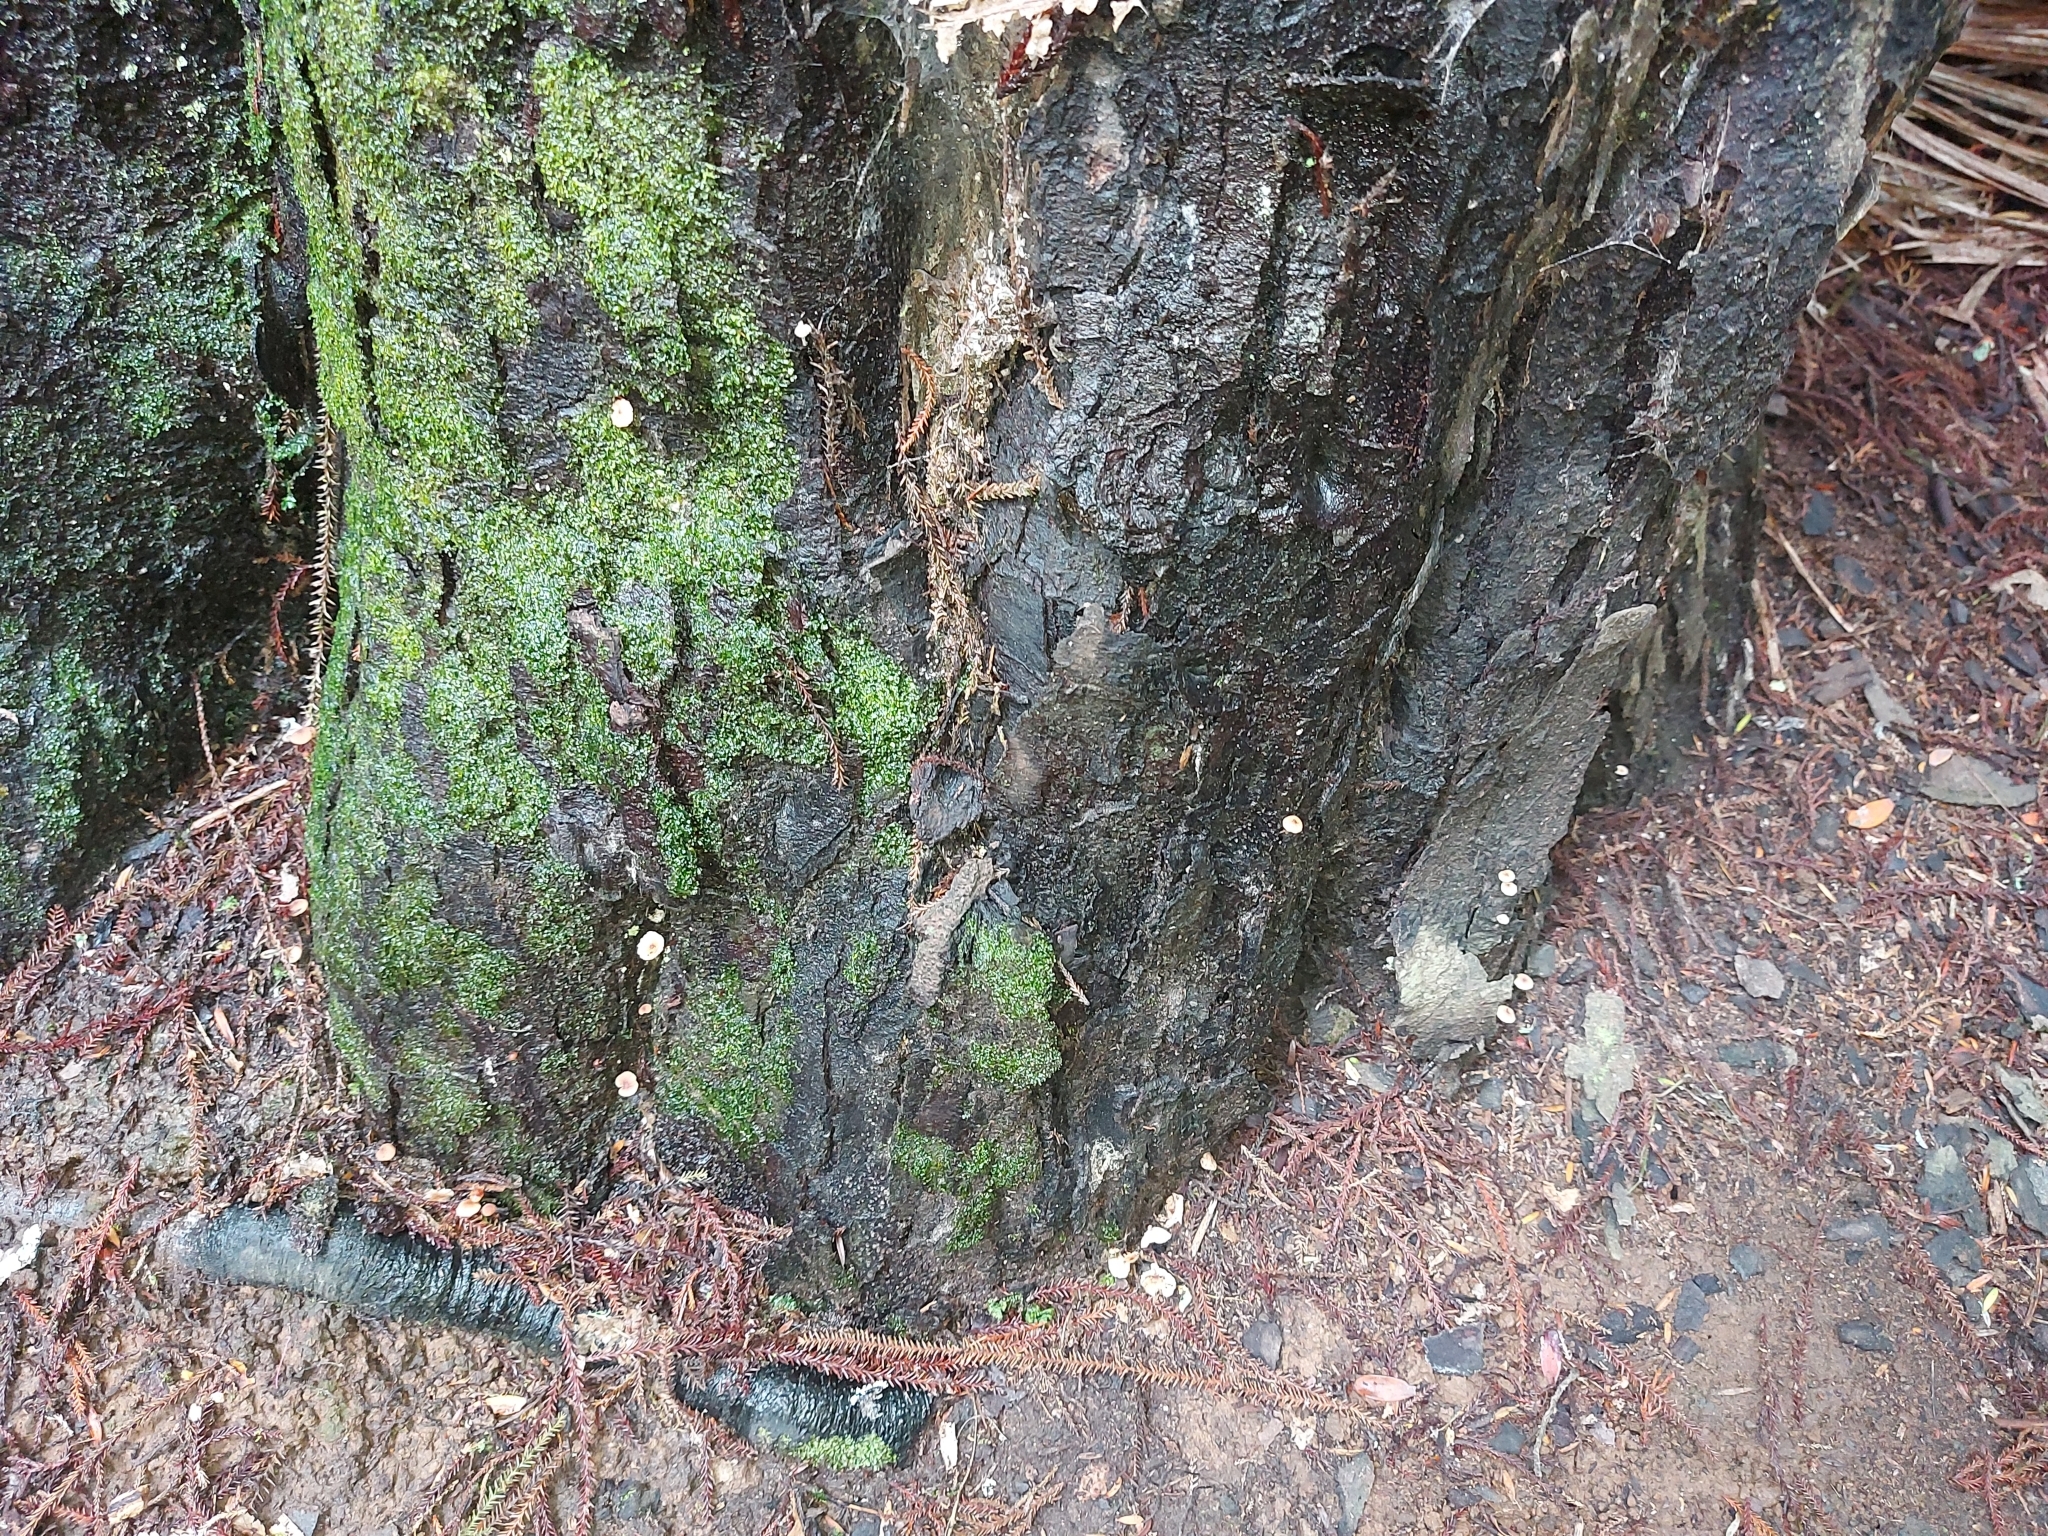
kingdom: Fungi
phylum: Basidiomycota
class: Agaricomycetes
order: Agaricales
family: Omphalotaceae
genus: Mycetinis
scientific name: Mycetinis curraniae
